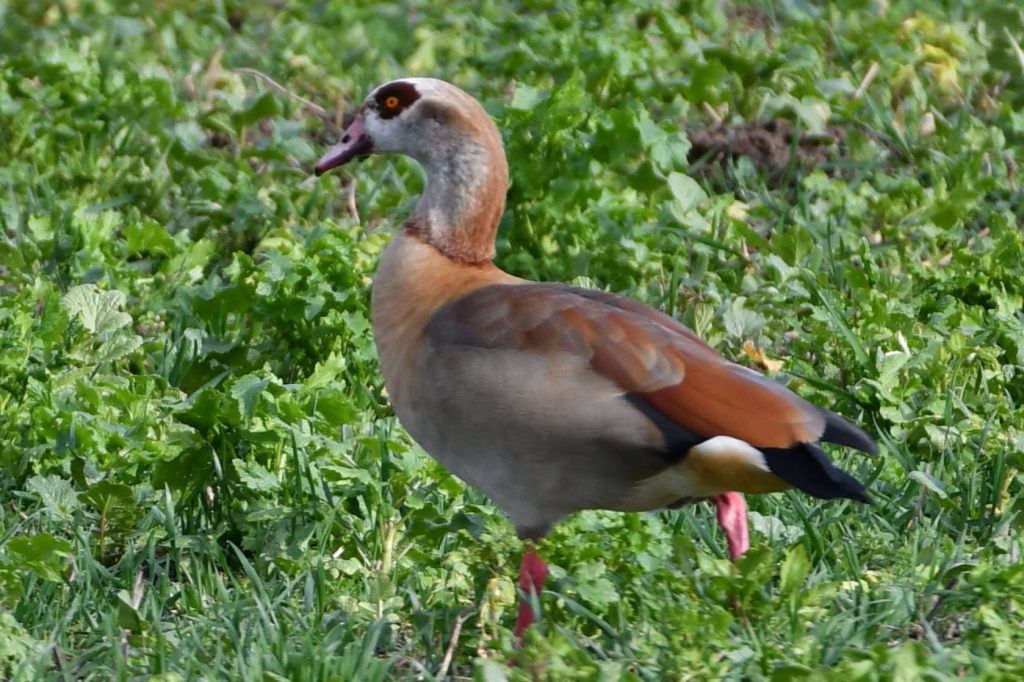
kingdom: Animalia
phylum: Chordata
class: Aves
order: Anseriformes
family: Anatidae
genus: Alopochen
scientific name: Alopochen aegyptiaca
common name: Egyptian goose
